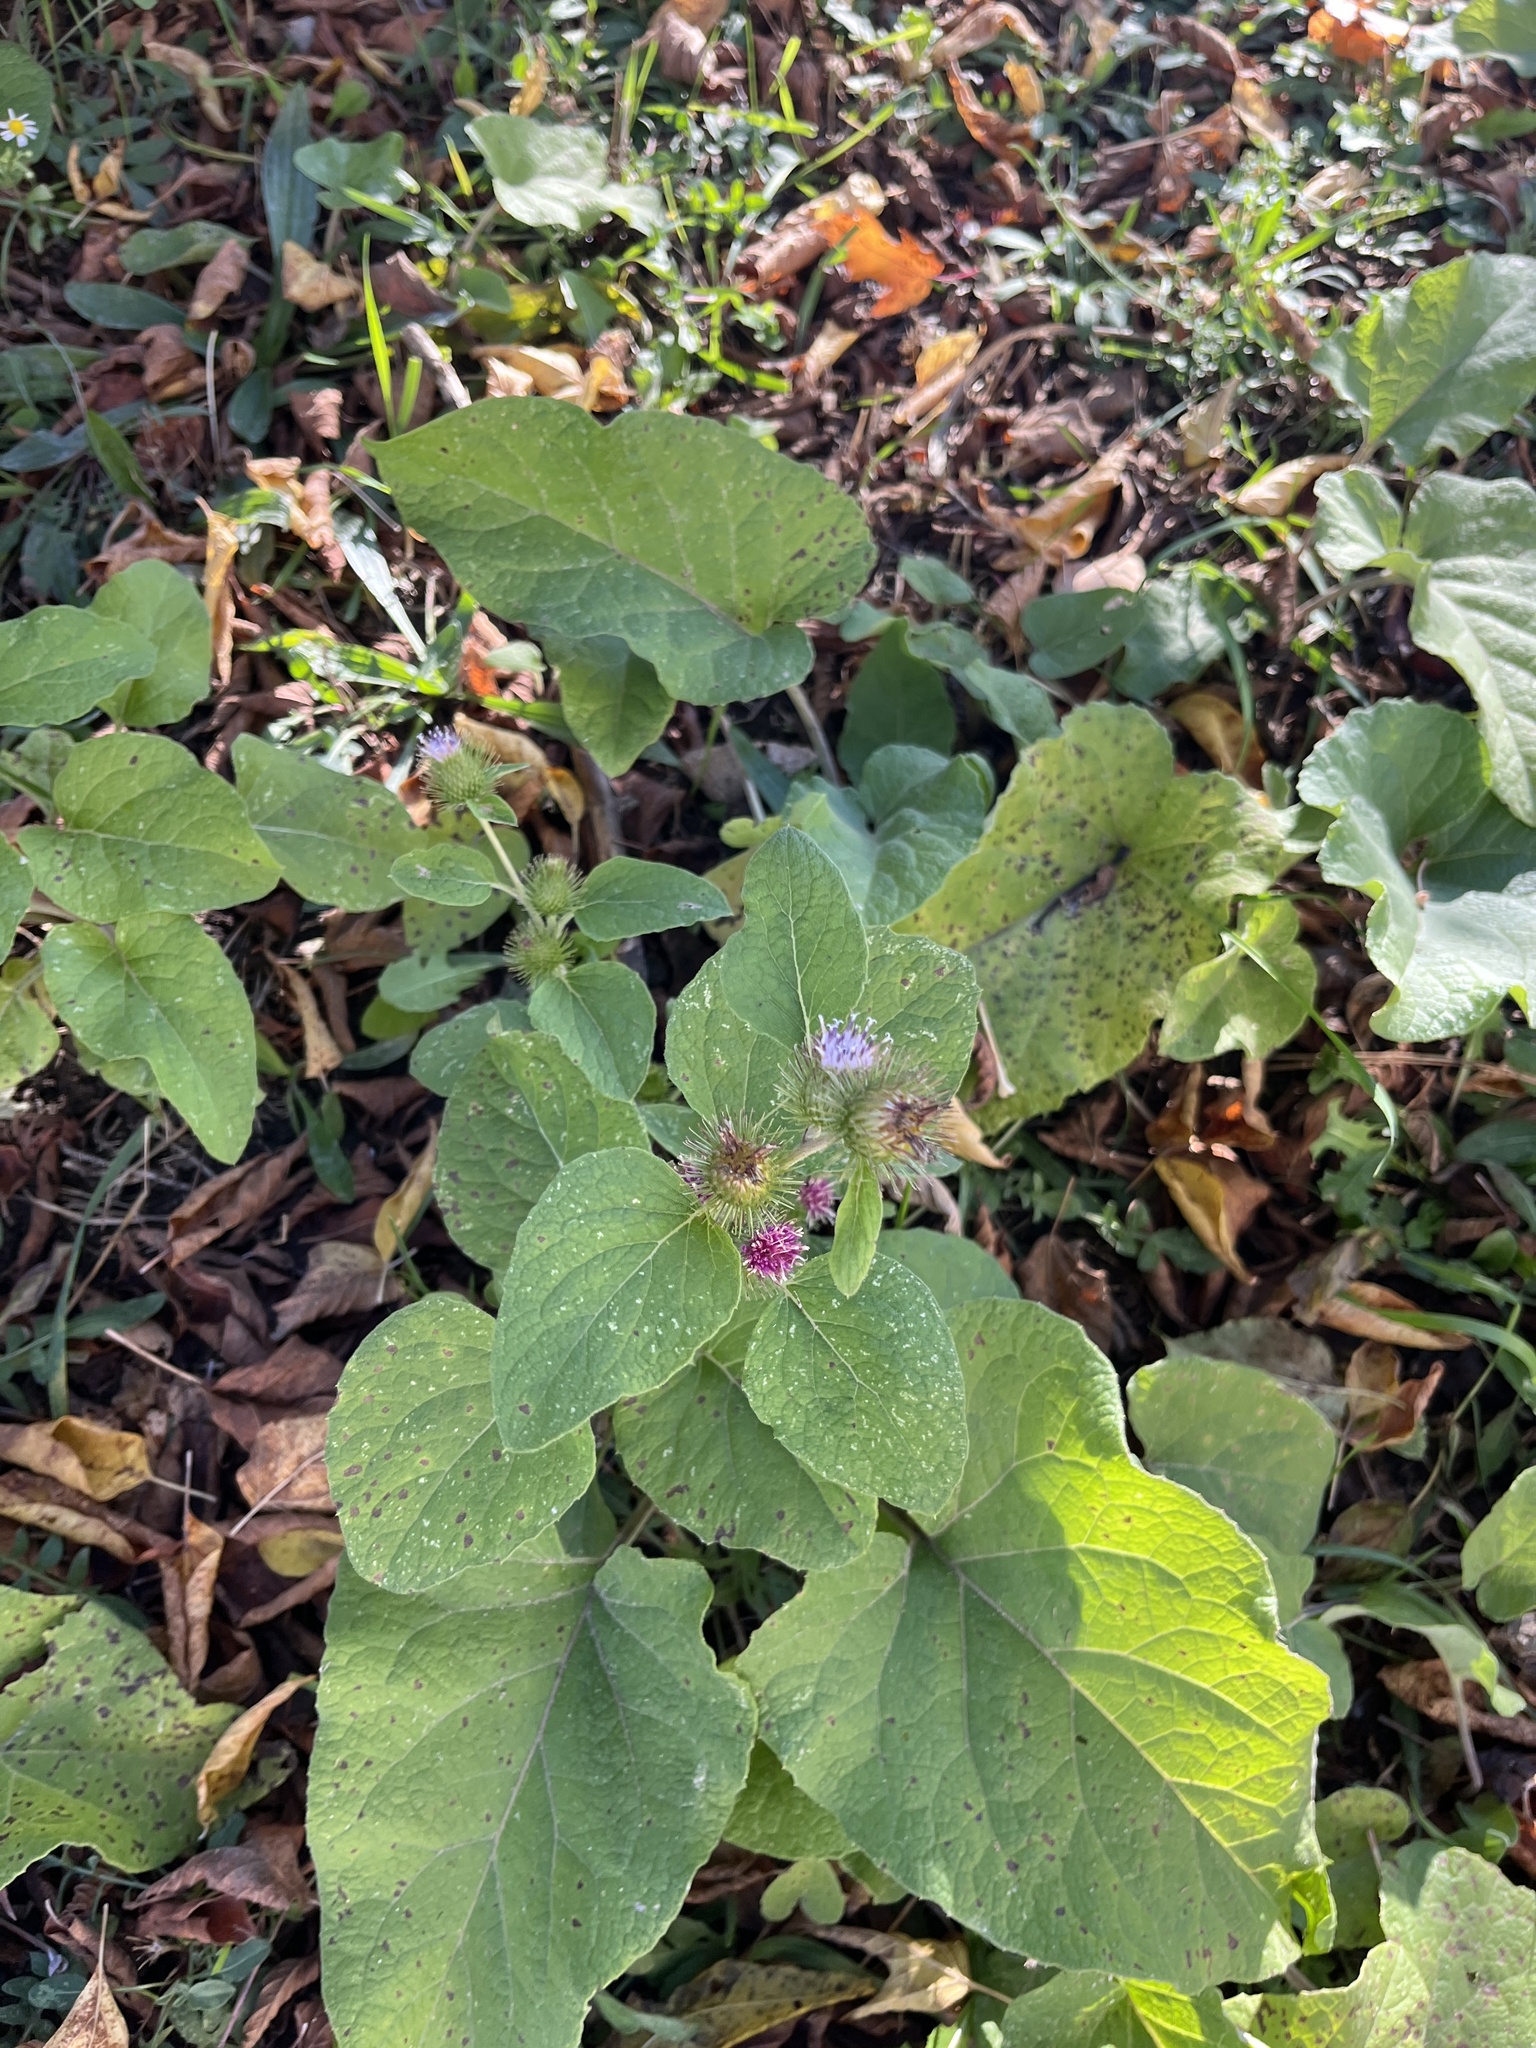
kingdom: Plantae
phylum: Tracheophyta
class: Magnoliopsida
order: Asterales
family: Asteraceae
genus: Arctium
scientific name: Arctium minus
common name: Lesser burdock
